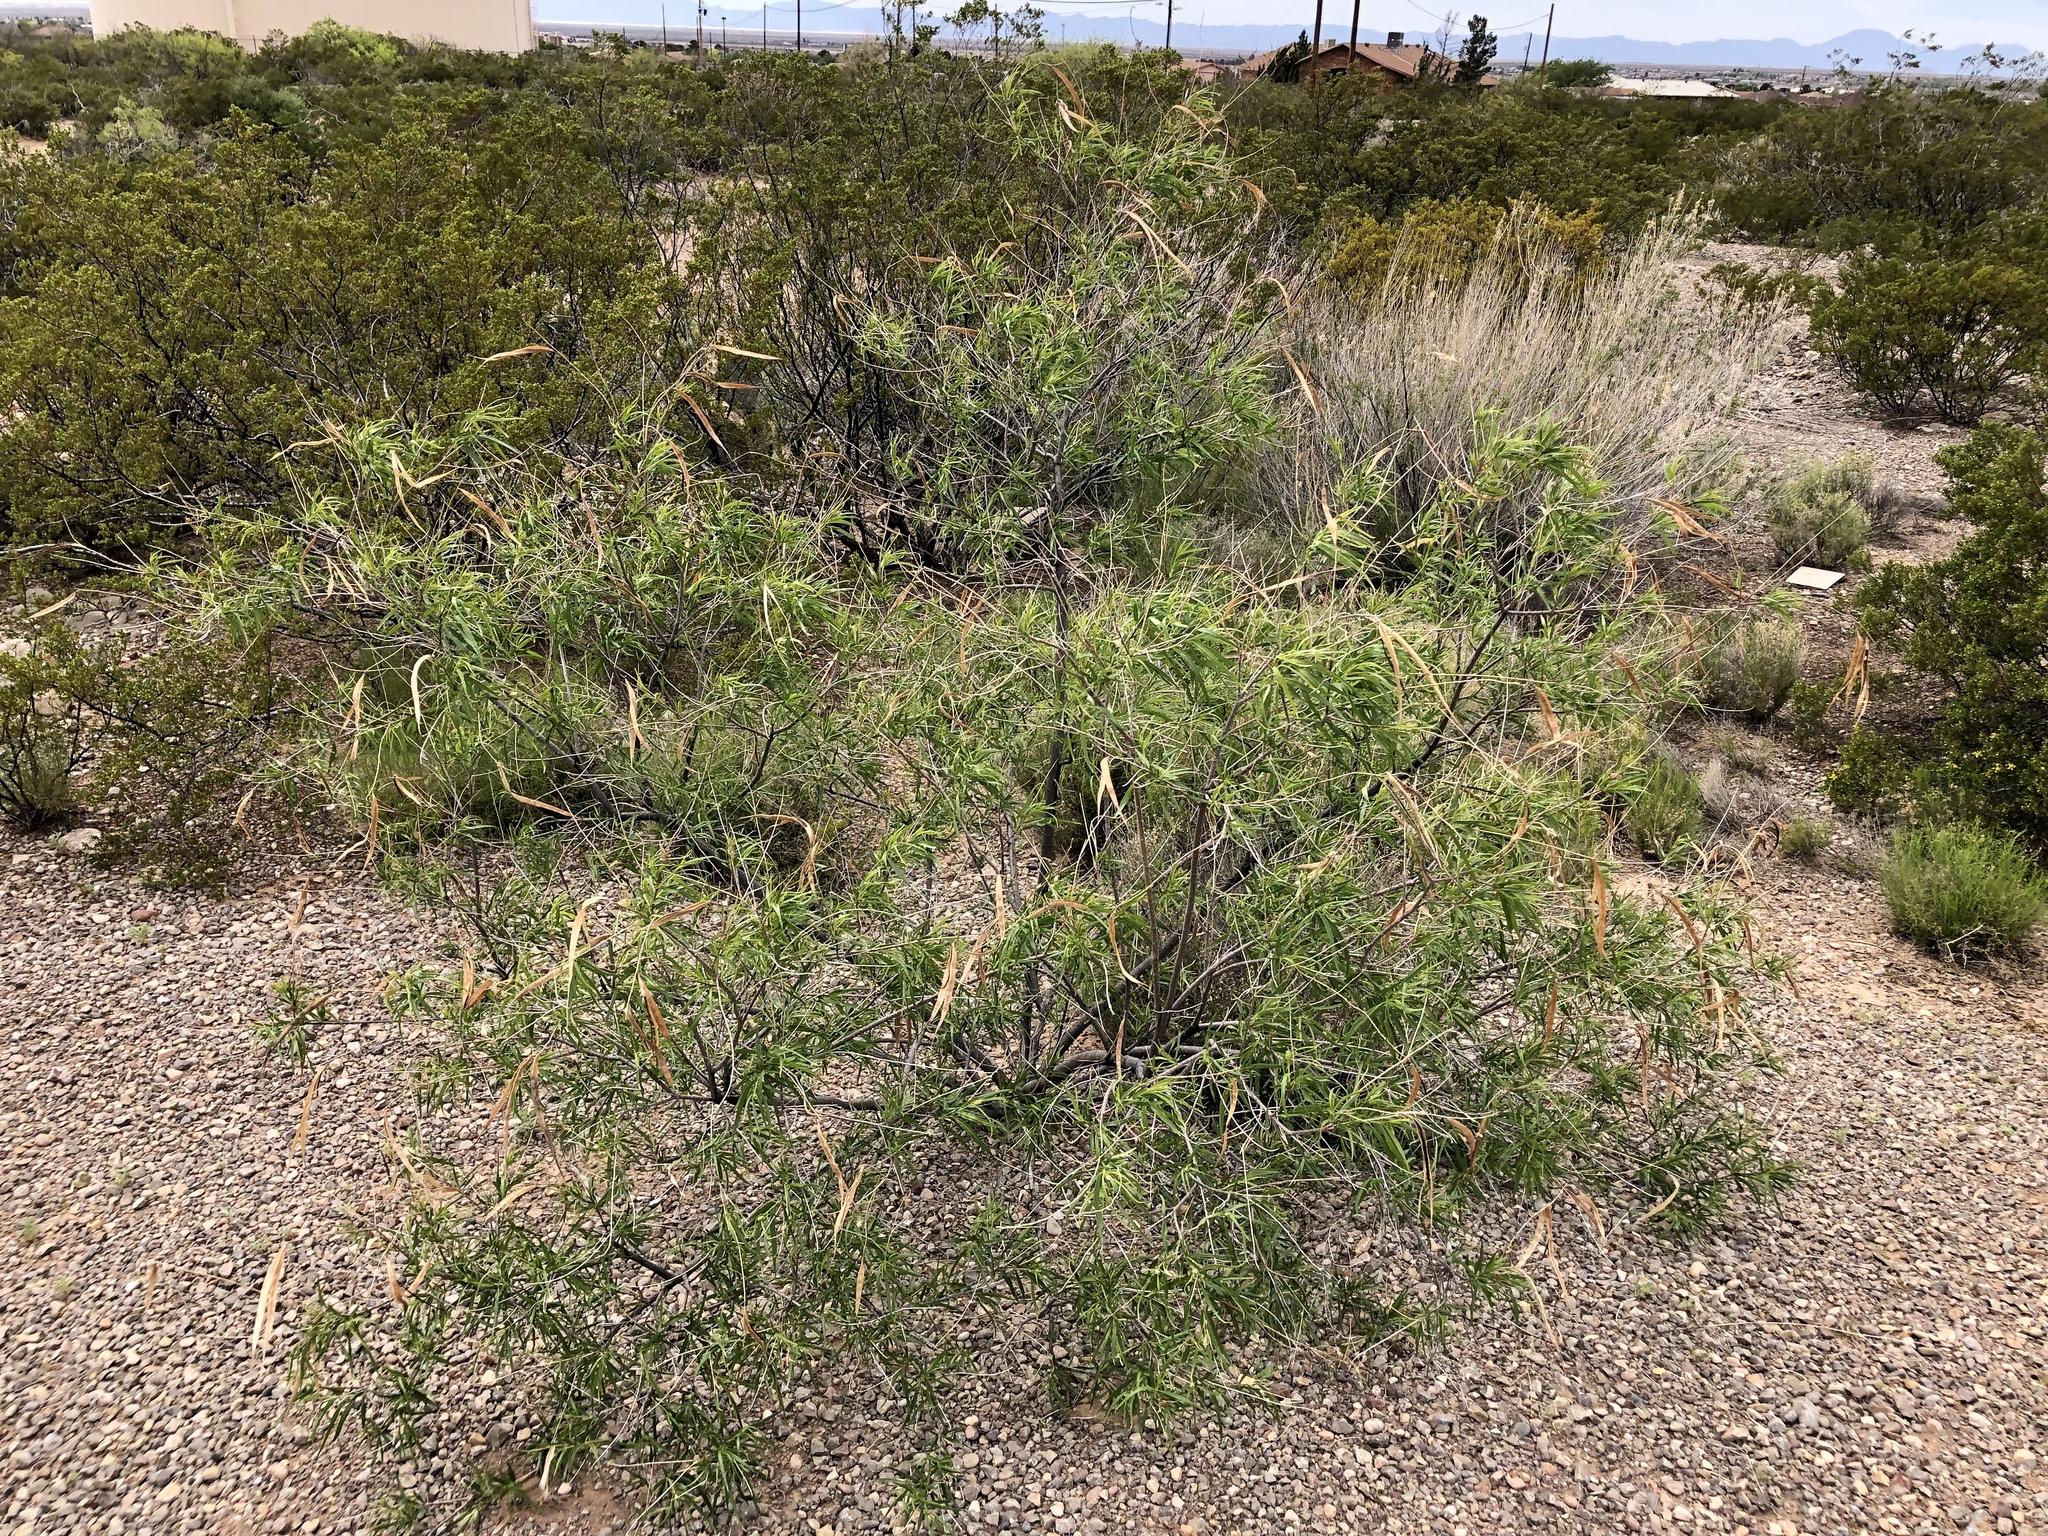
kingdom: Plantae
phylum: Tracheophyta
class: Magnoliopsida
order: Lamiales
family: Bignoniaceae
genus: Chilopsis
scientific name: Chilopsis linearis
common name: Desert-willow
